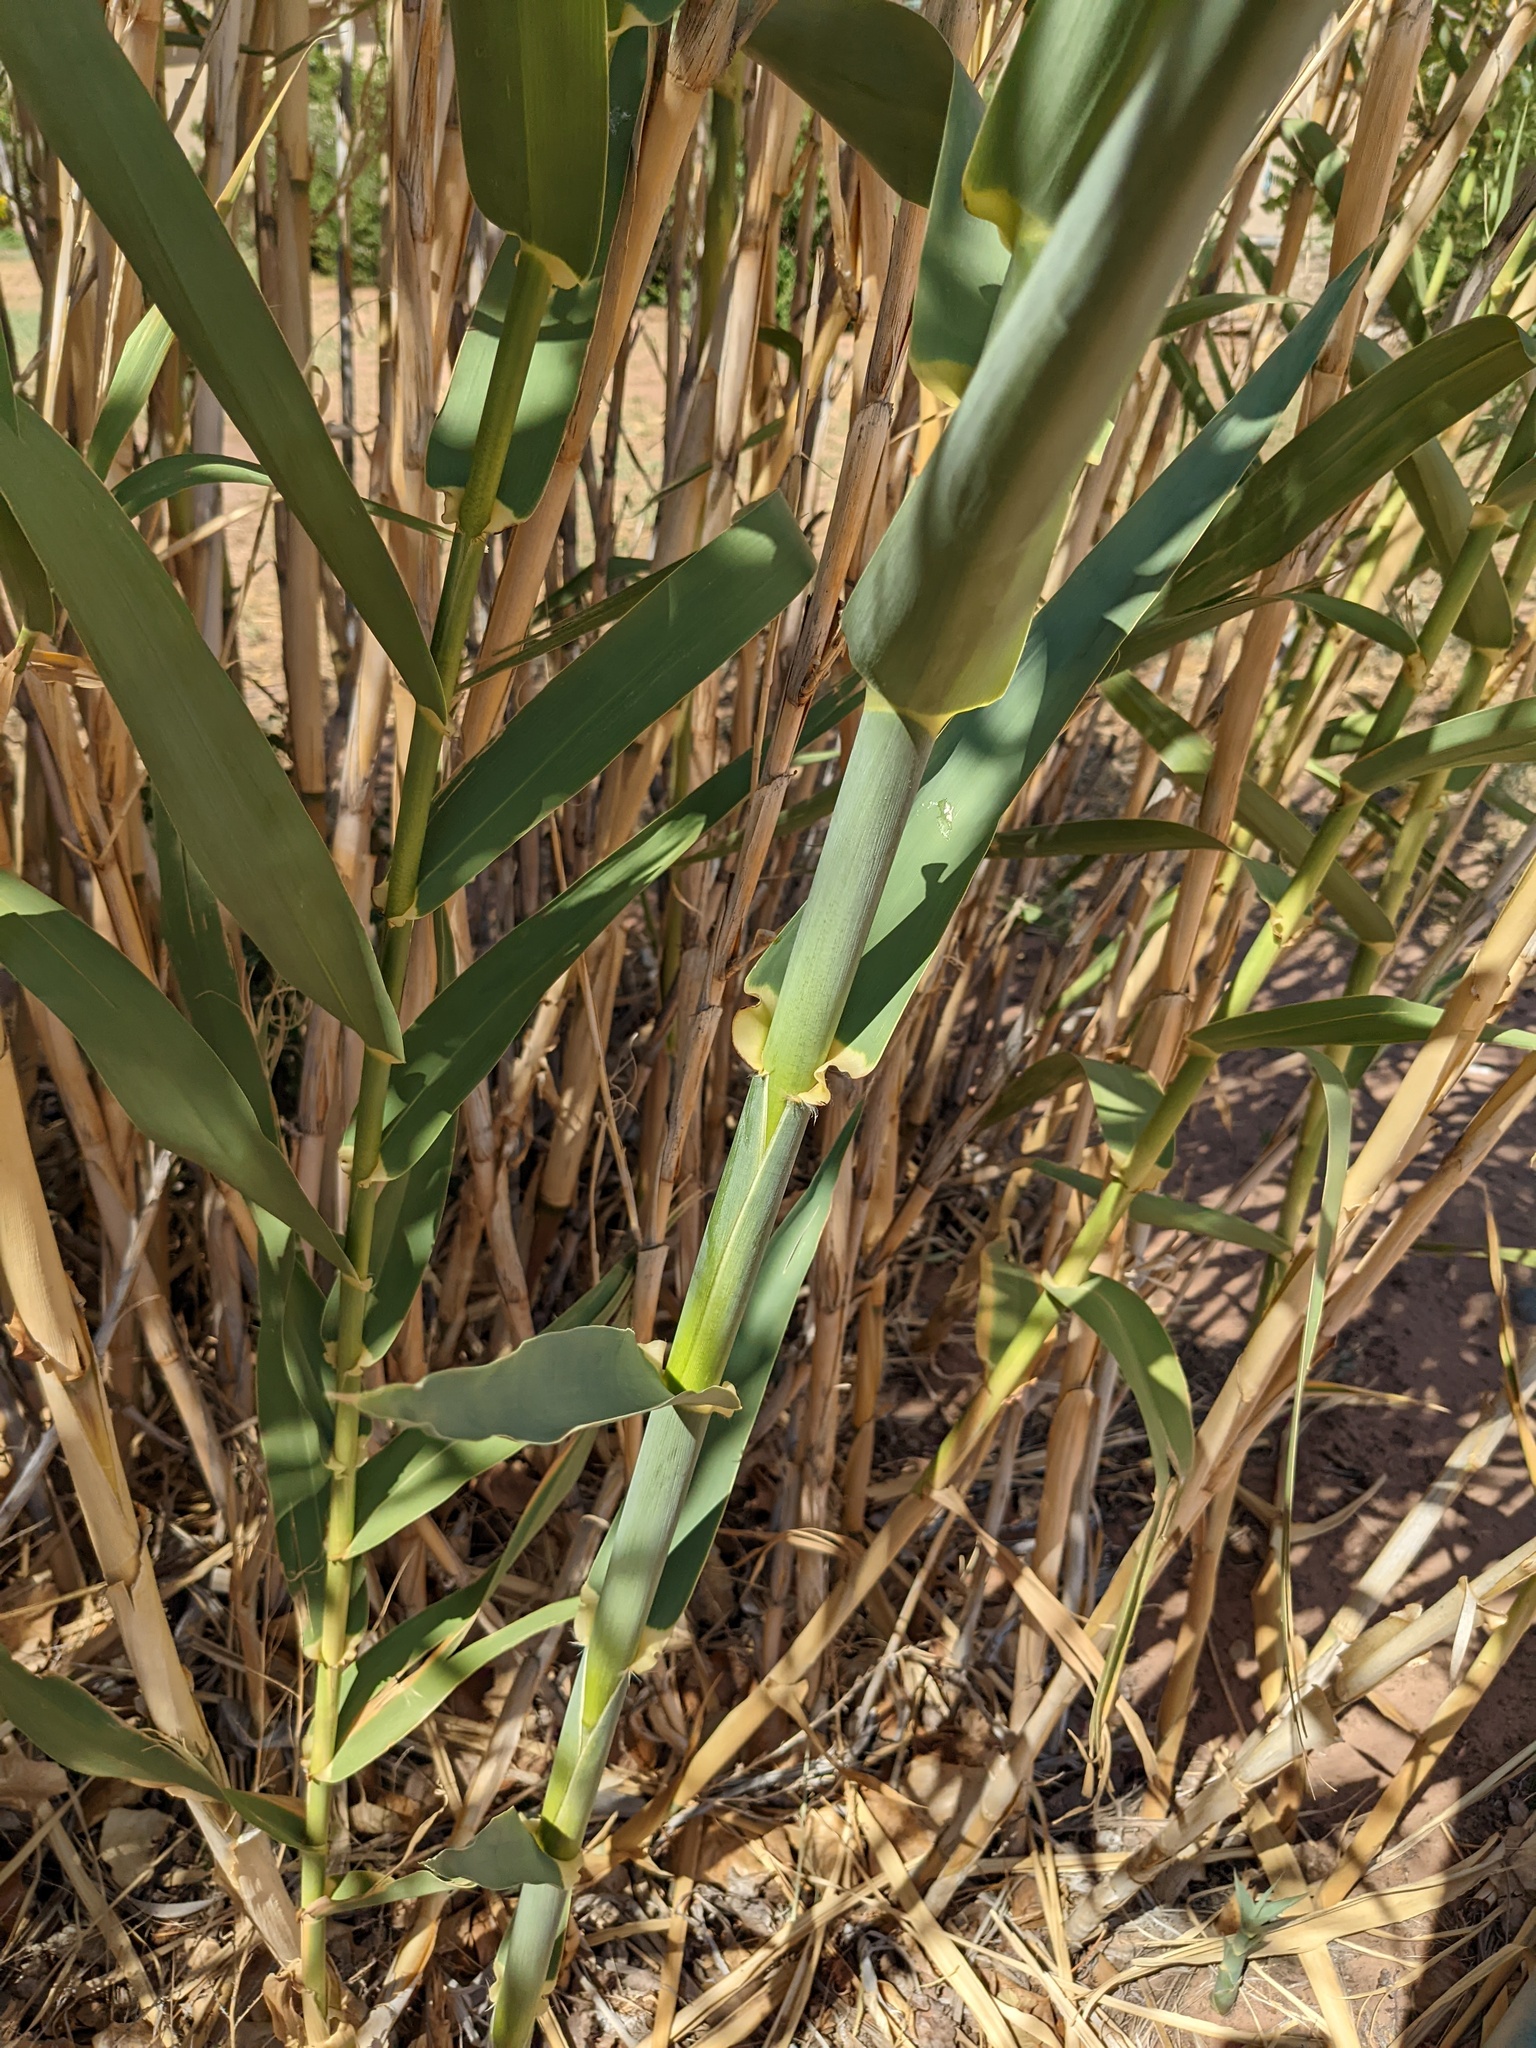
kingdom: Plantae
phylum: Tracheophyta
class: Liliopsida
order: Poales
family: Poaceae
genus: Arundo
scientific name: Arundo donax
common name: Giant reed
